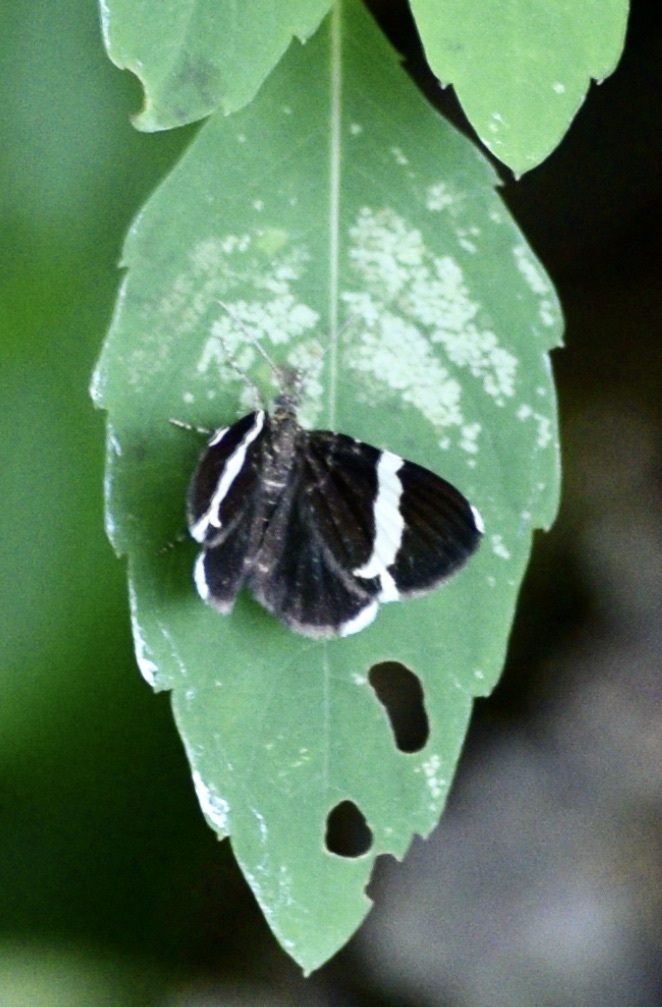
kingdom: Animalia
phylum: Arthropoda
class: Insecta
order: Lepidoptera
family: Geometridae
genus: Trichodezia
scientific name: Trichodezia albovittata
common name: White striped black
